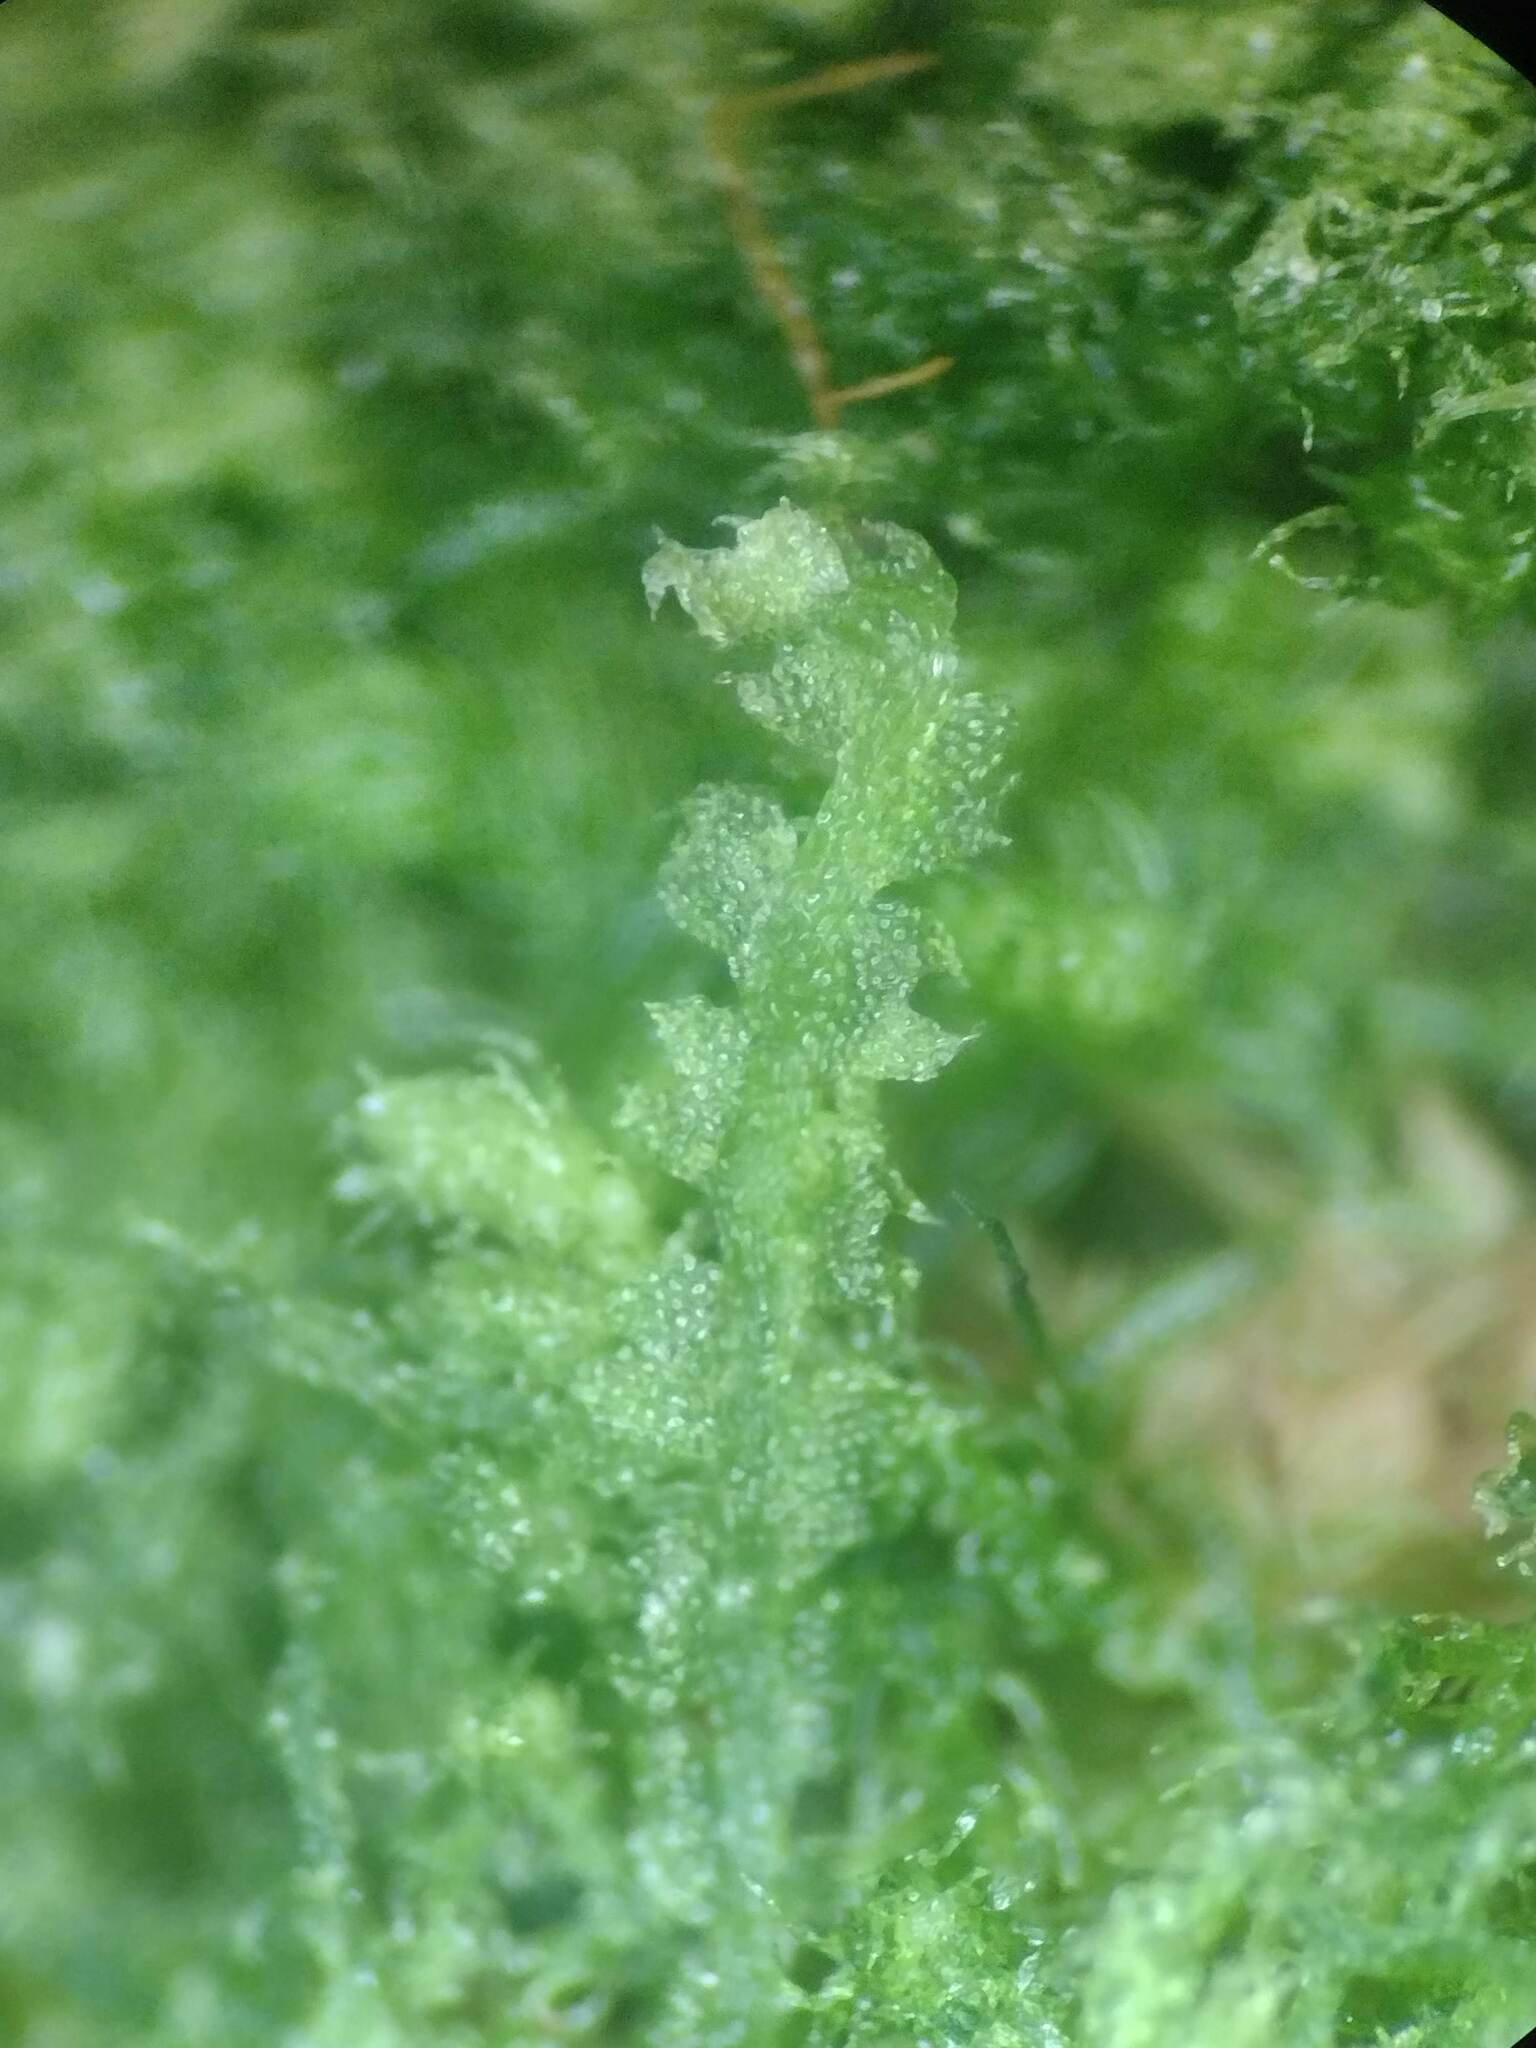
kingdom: Plantae
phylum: Marchantiophyta
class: Jungermanniopsida
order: Jungermanniales
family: Cephaloziaceae
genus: Fuscocephaloziopsis
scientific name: Fuscocephaloziopsis connivens
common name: Forcipated pincerwort
